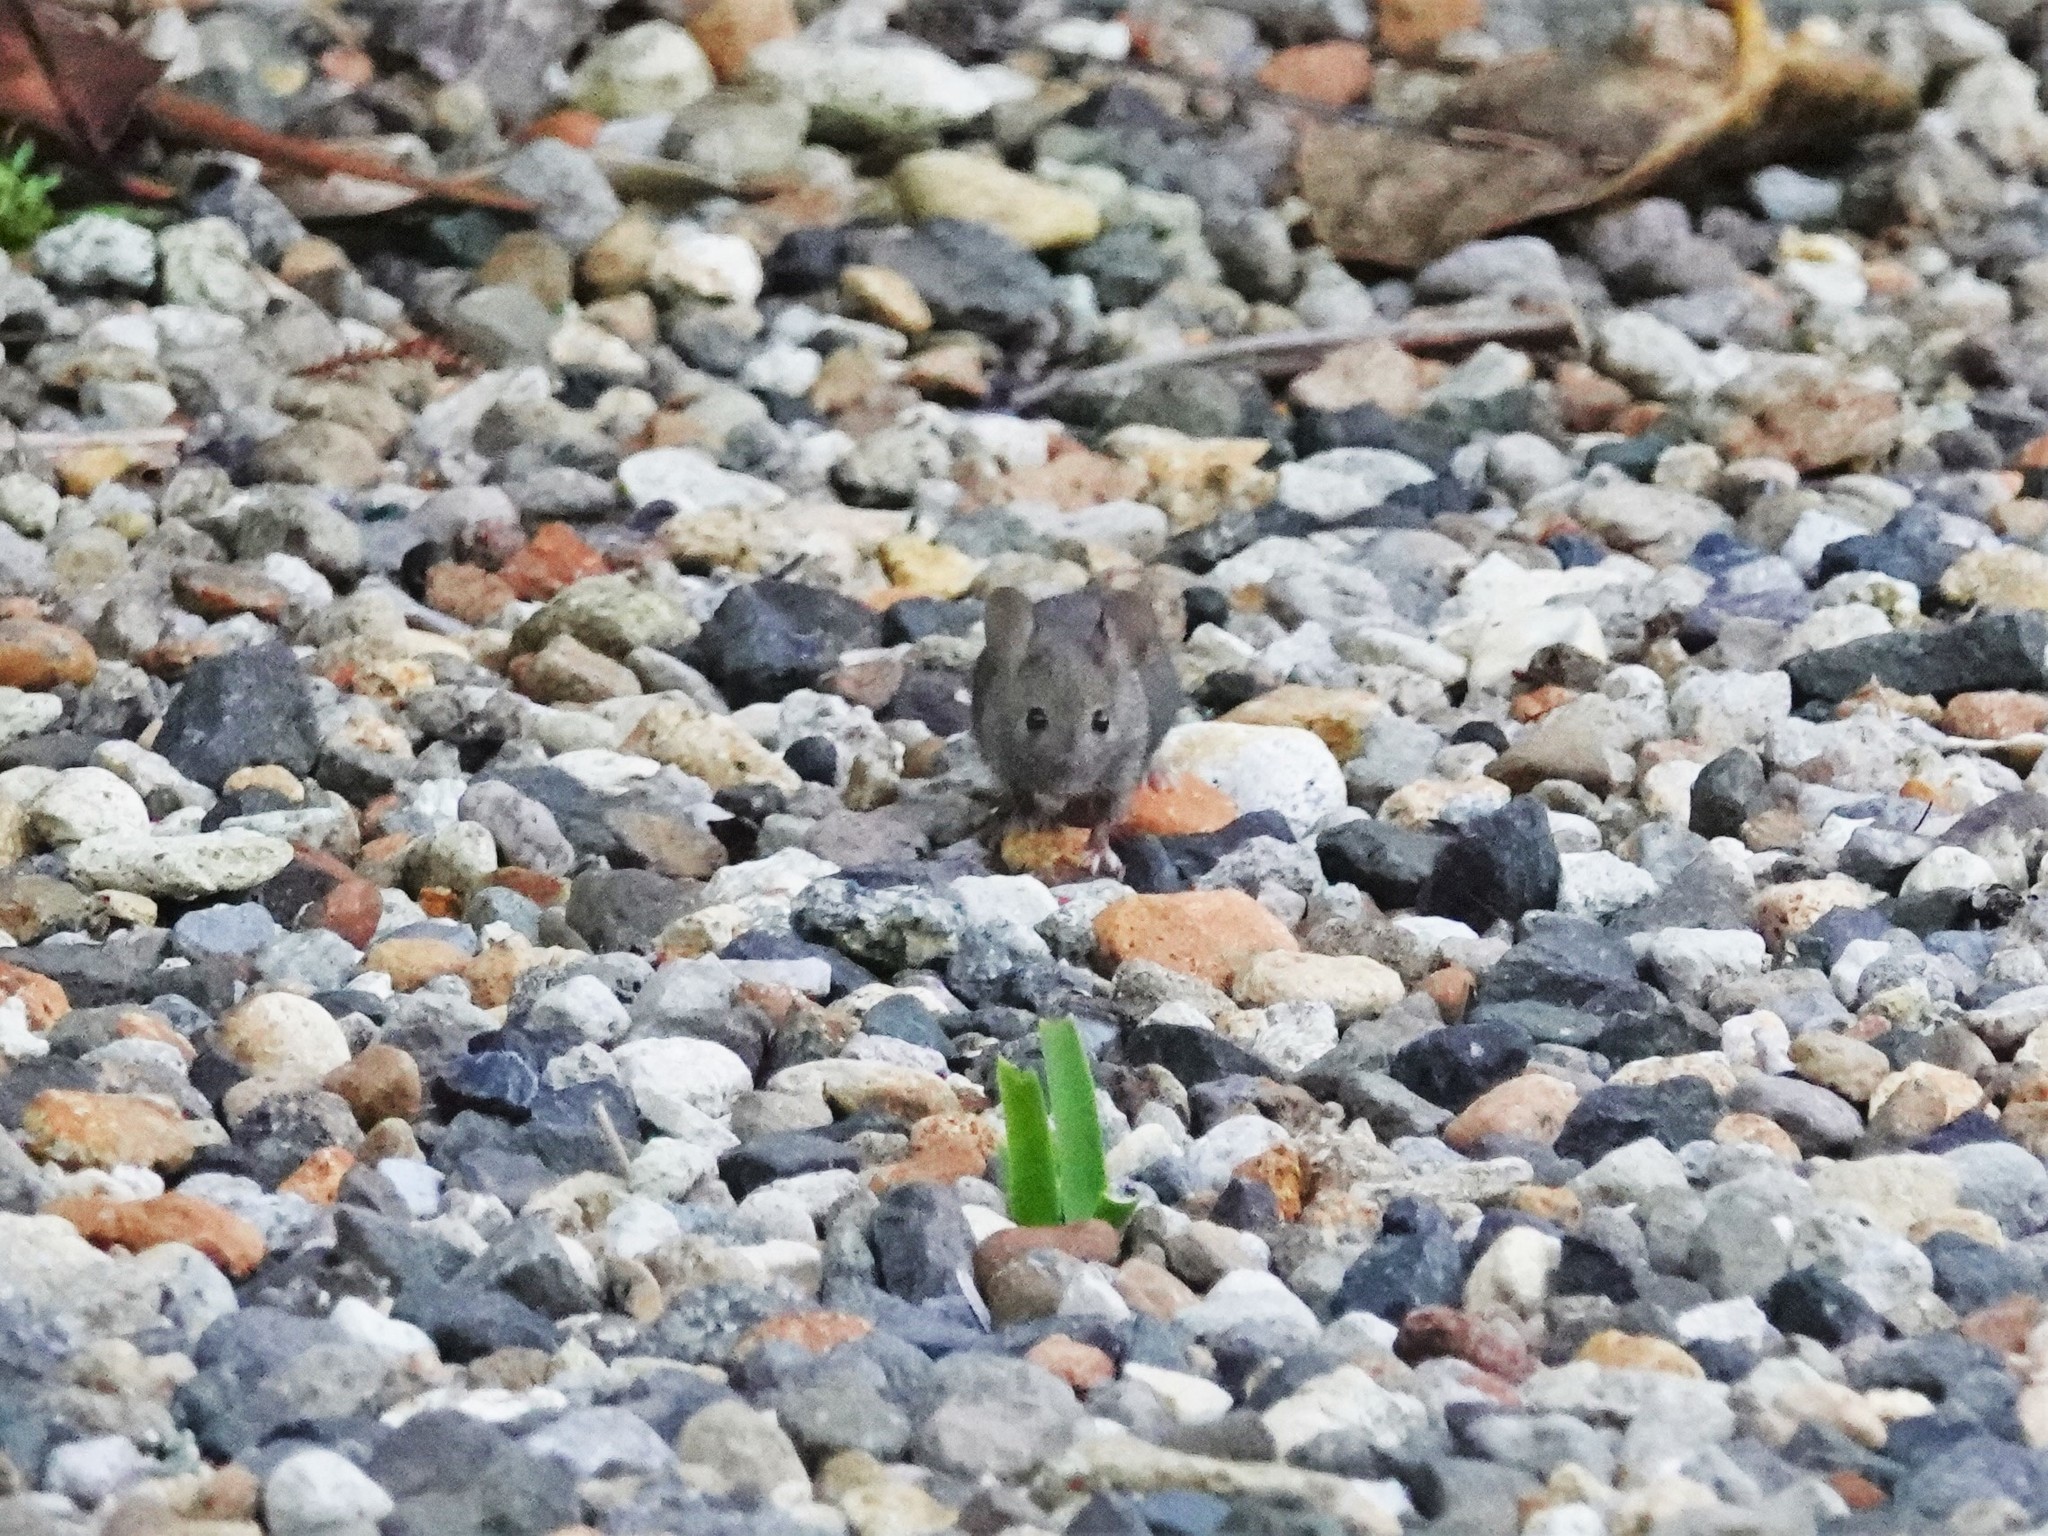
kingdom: Animalia
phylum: Chordata
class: Mammalia
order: Rodentia
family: Muridae
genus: Mus
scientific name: Mus musculus
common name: House mouse
